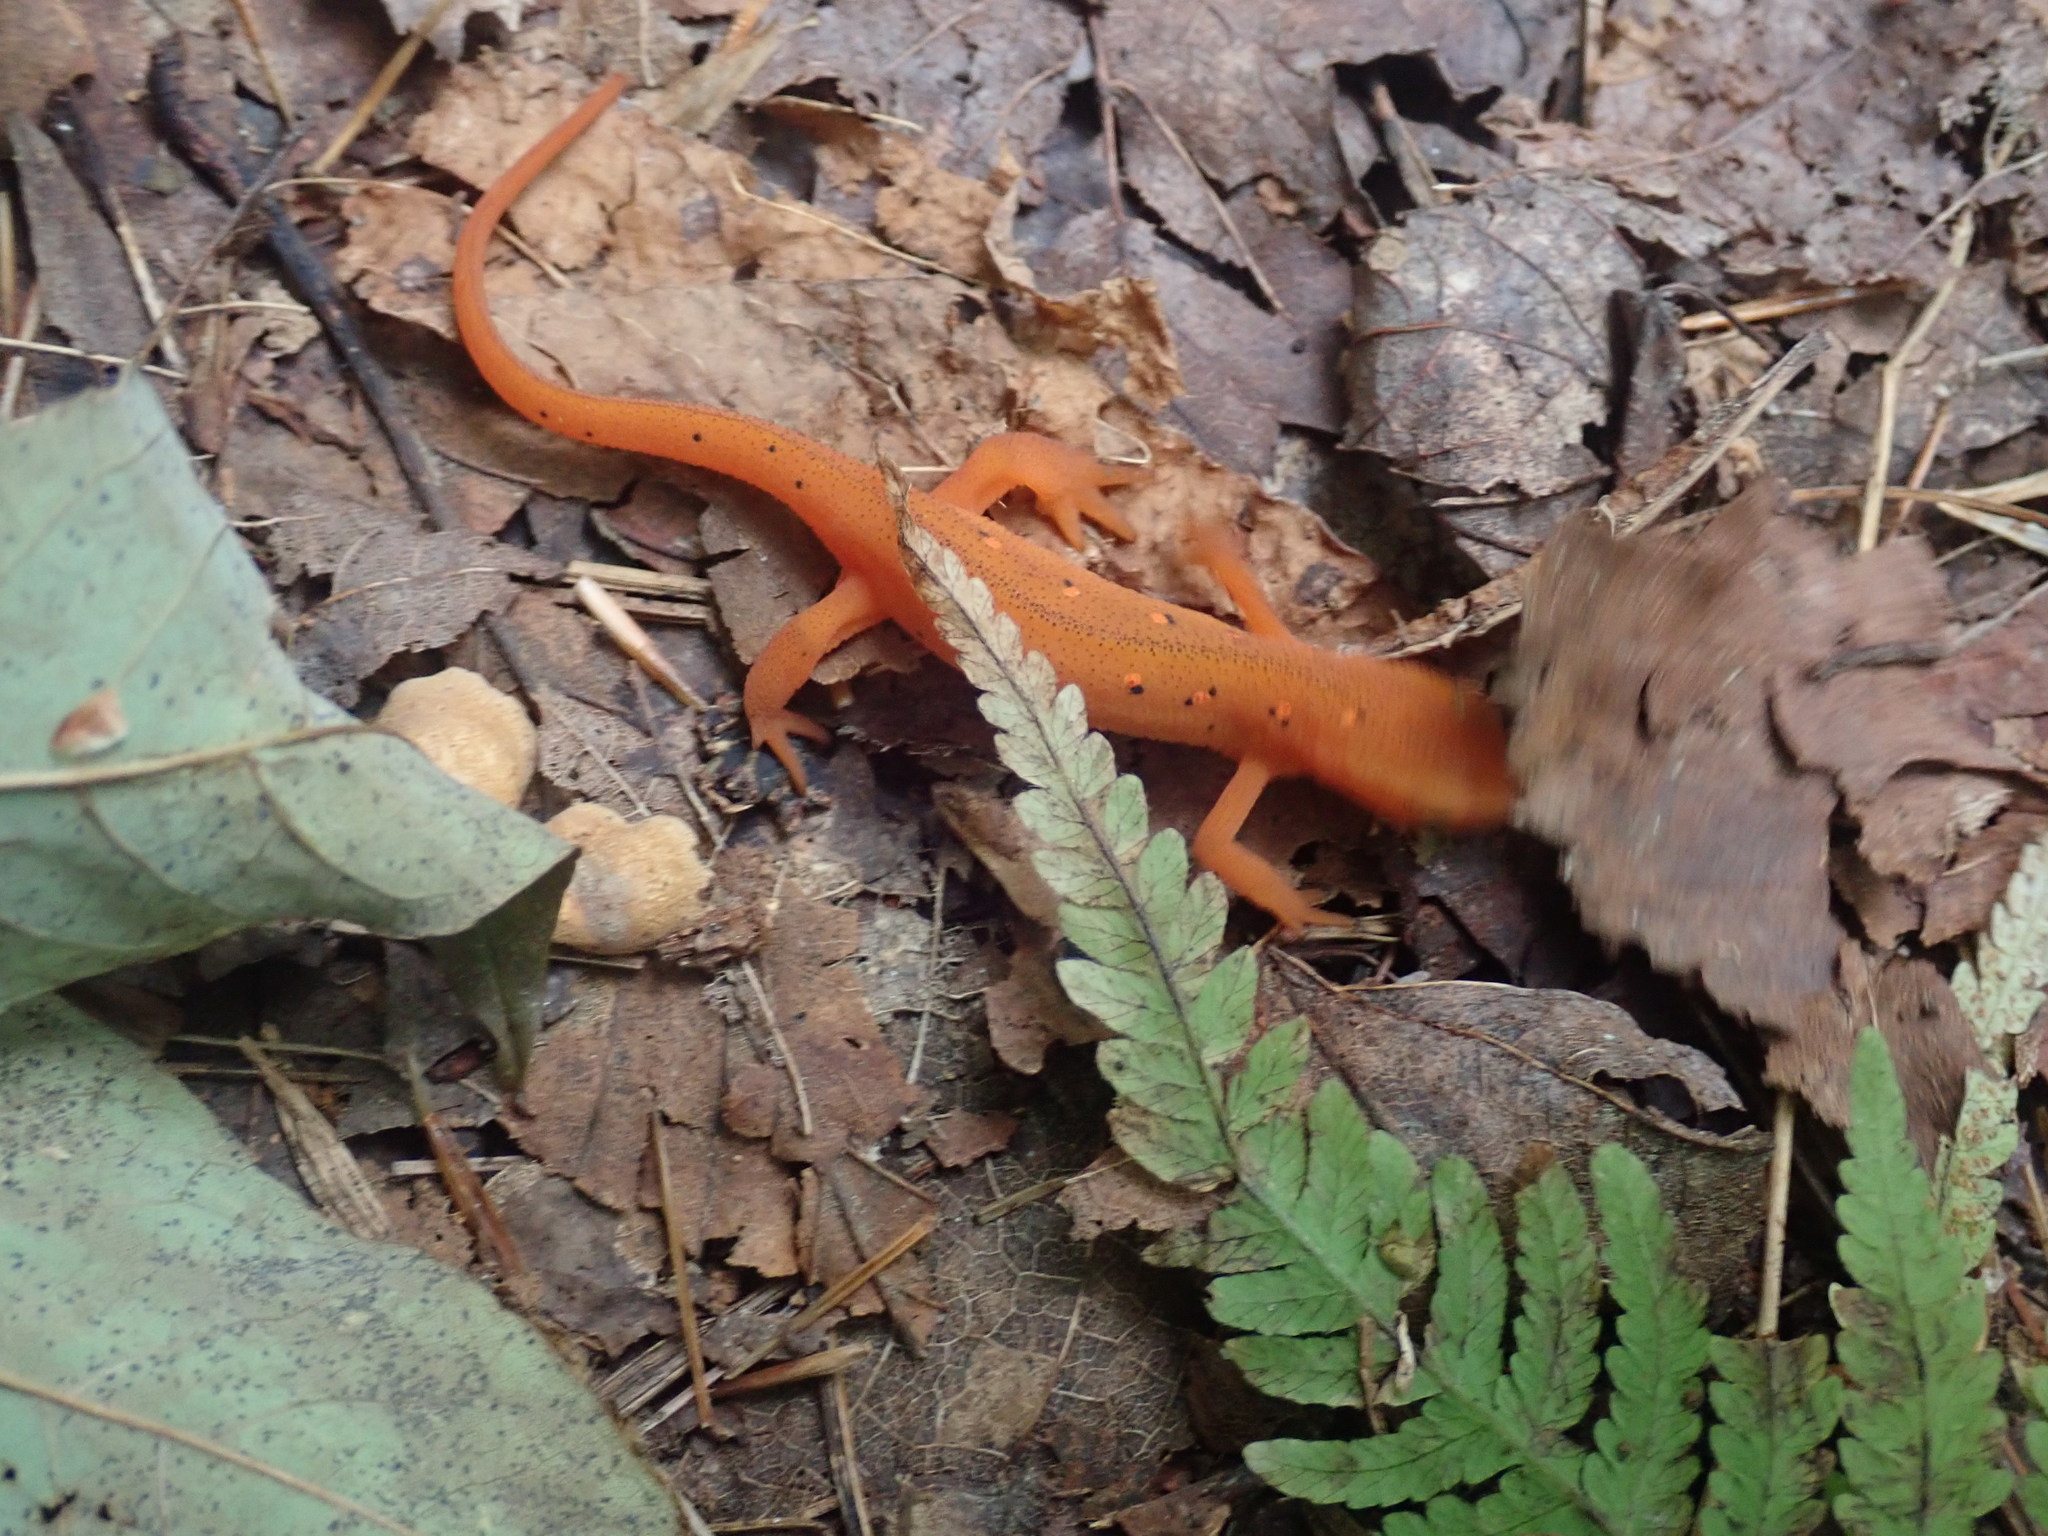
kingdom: Animalia
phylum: Chordata
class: Amphibia
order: Caudata
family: Salamandridae
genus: Notophthalmus
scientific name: Notophthalmus viridescens
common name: Eastern newt
